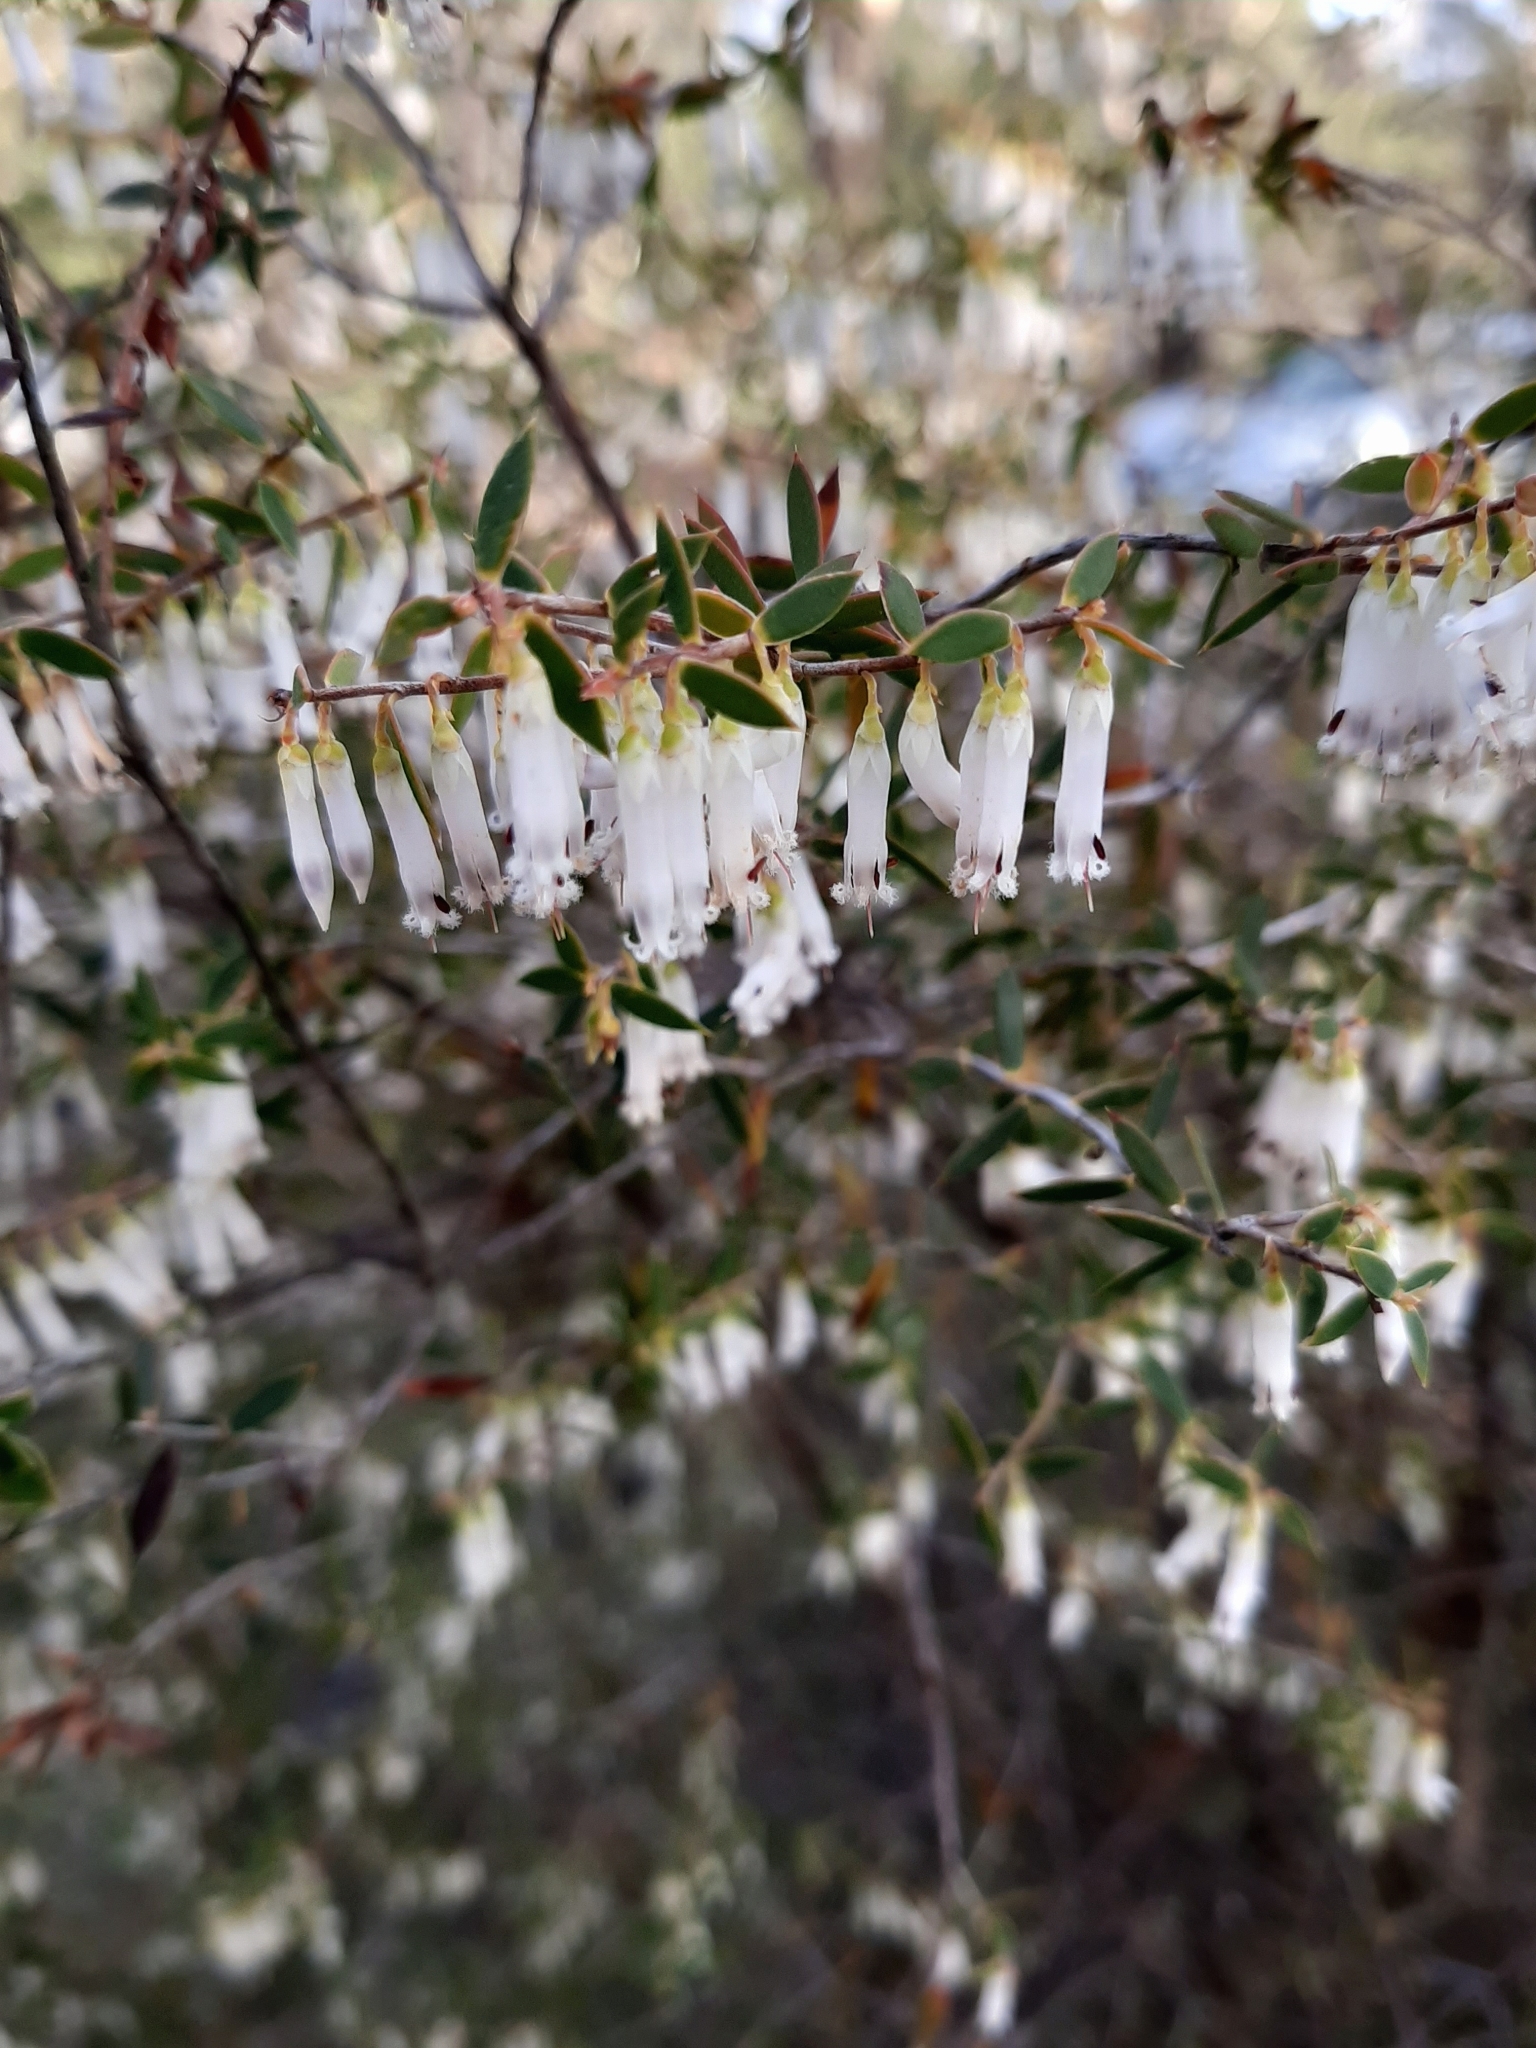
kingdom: Plantae
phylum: Tracheophyta
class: Magnoliopsida
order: Ericales
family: Ericaceae
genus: Styphelia
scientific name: Styphelia nitens
